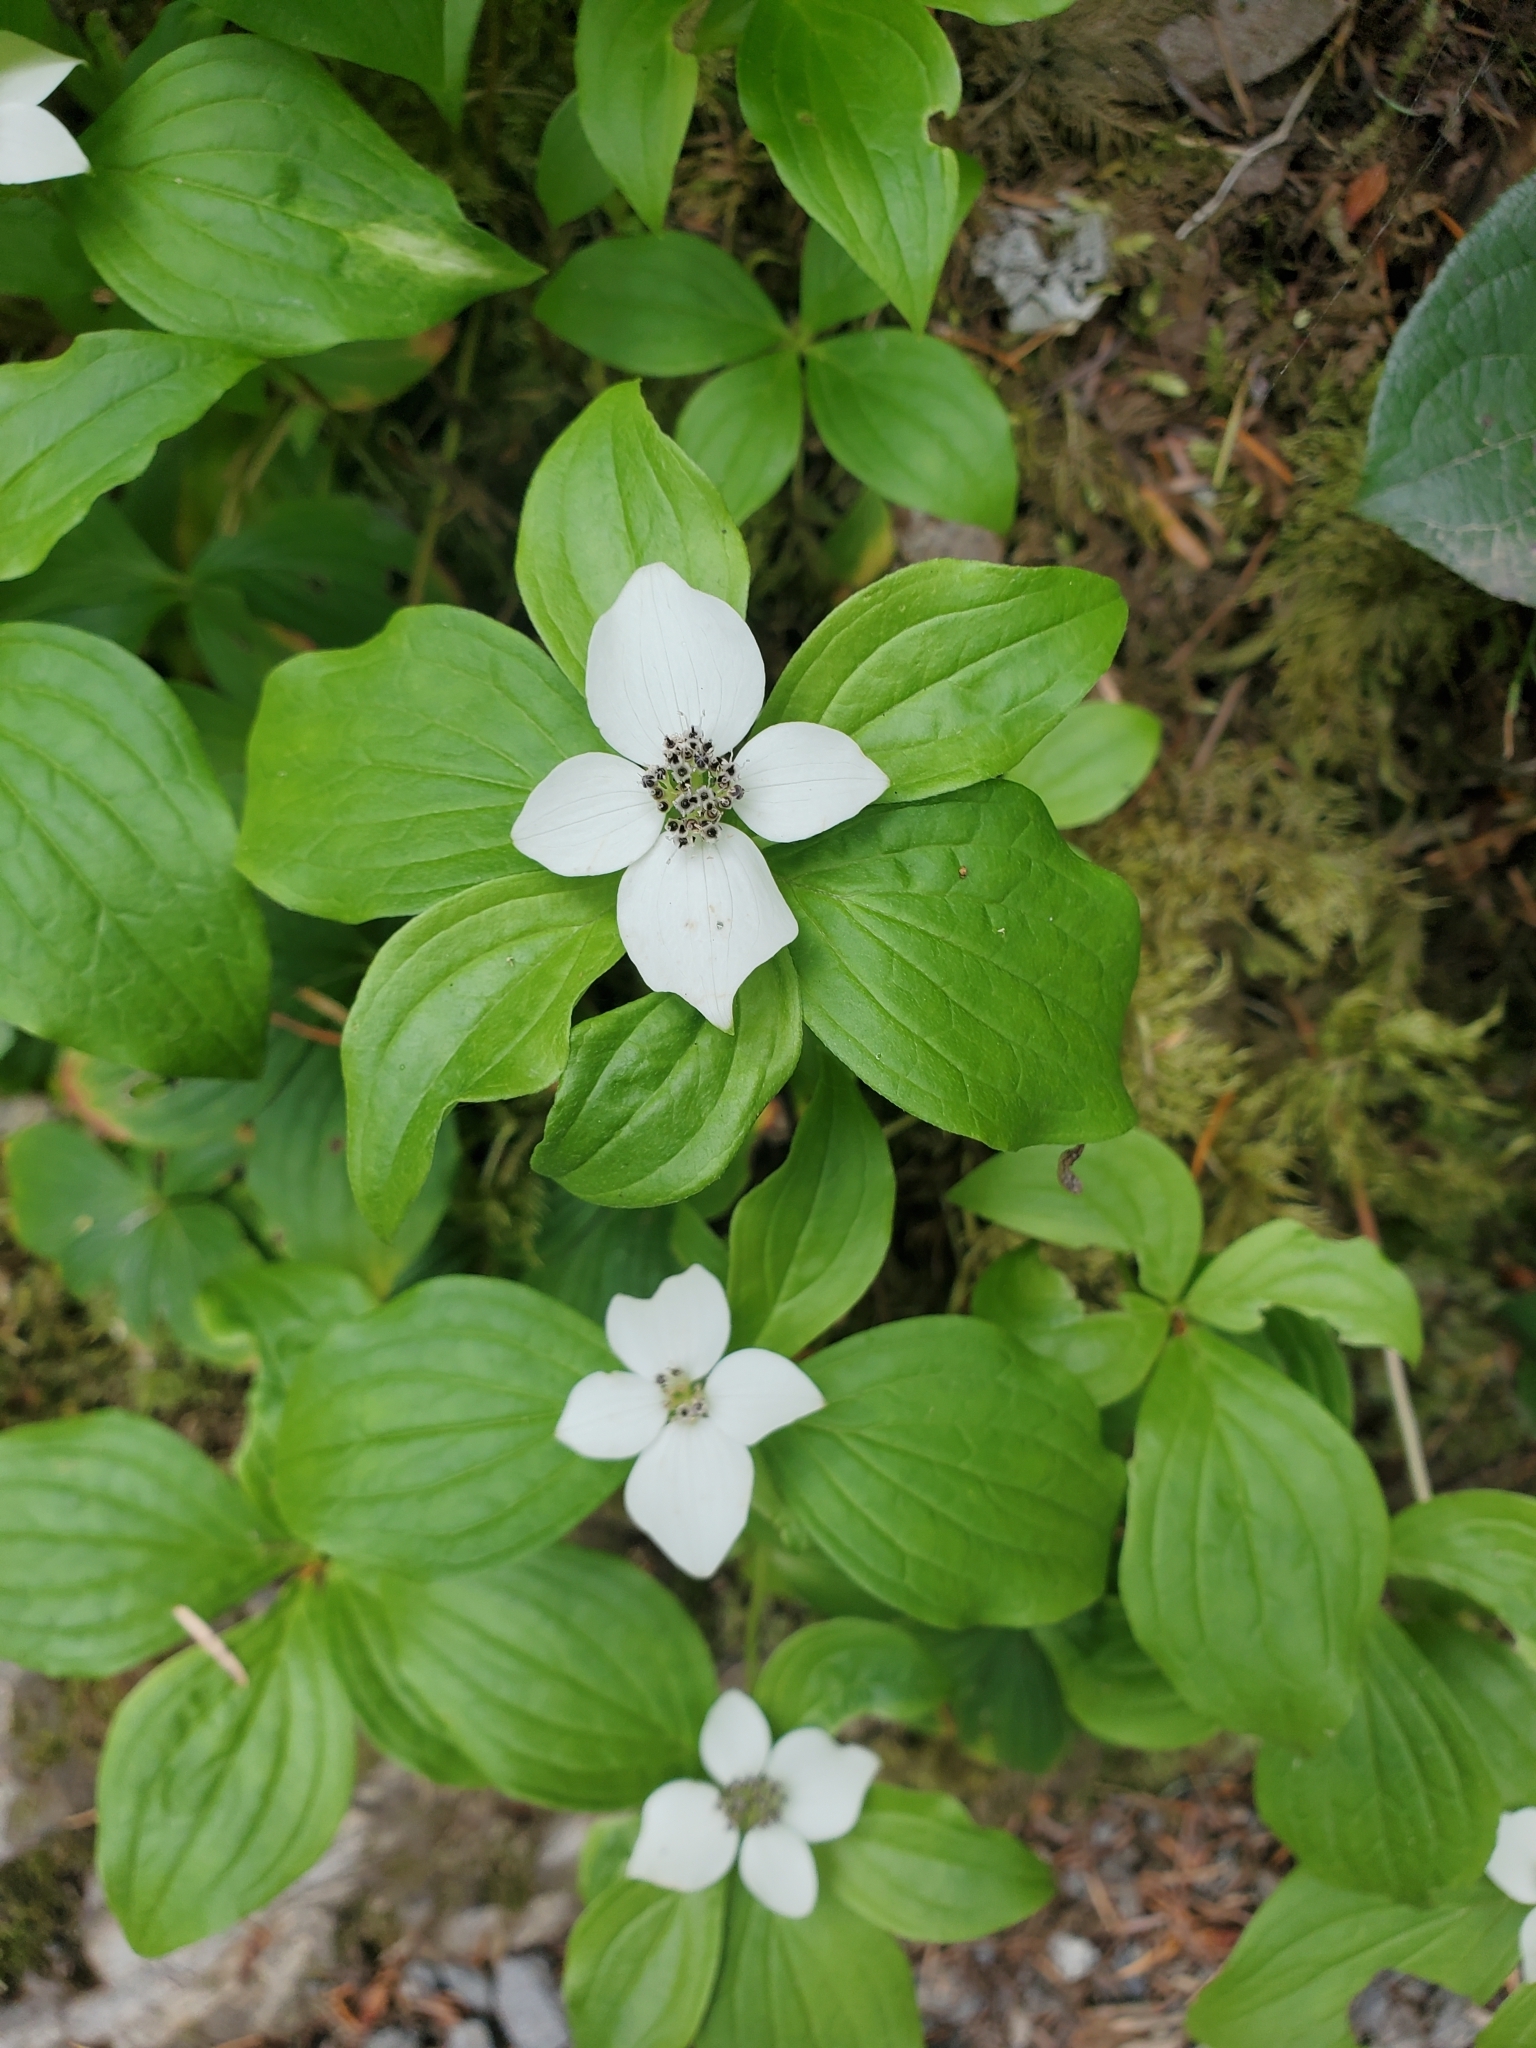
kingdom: Plantae
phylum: Tracheophyta
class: Magnoliopsida
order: Cornales
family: Cornaceae
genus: Cornus
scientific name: Cornus unalaschkensis
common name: Alaska bunchberry
